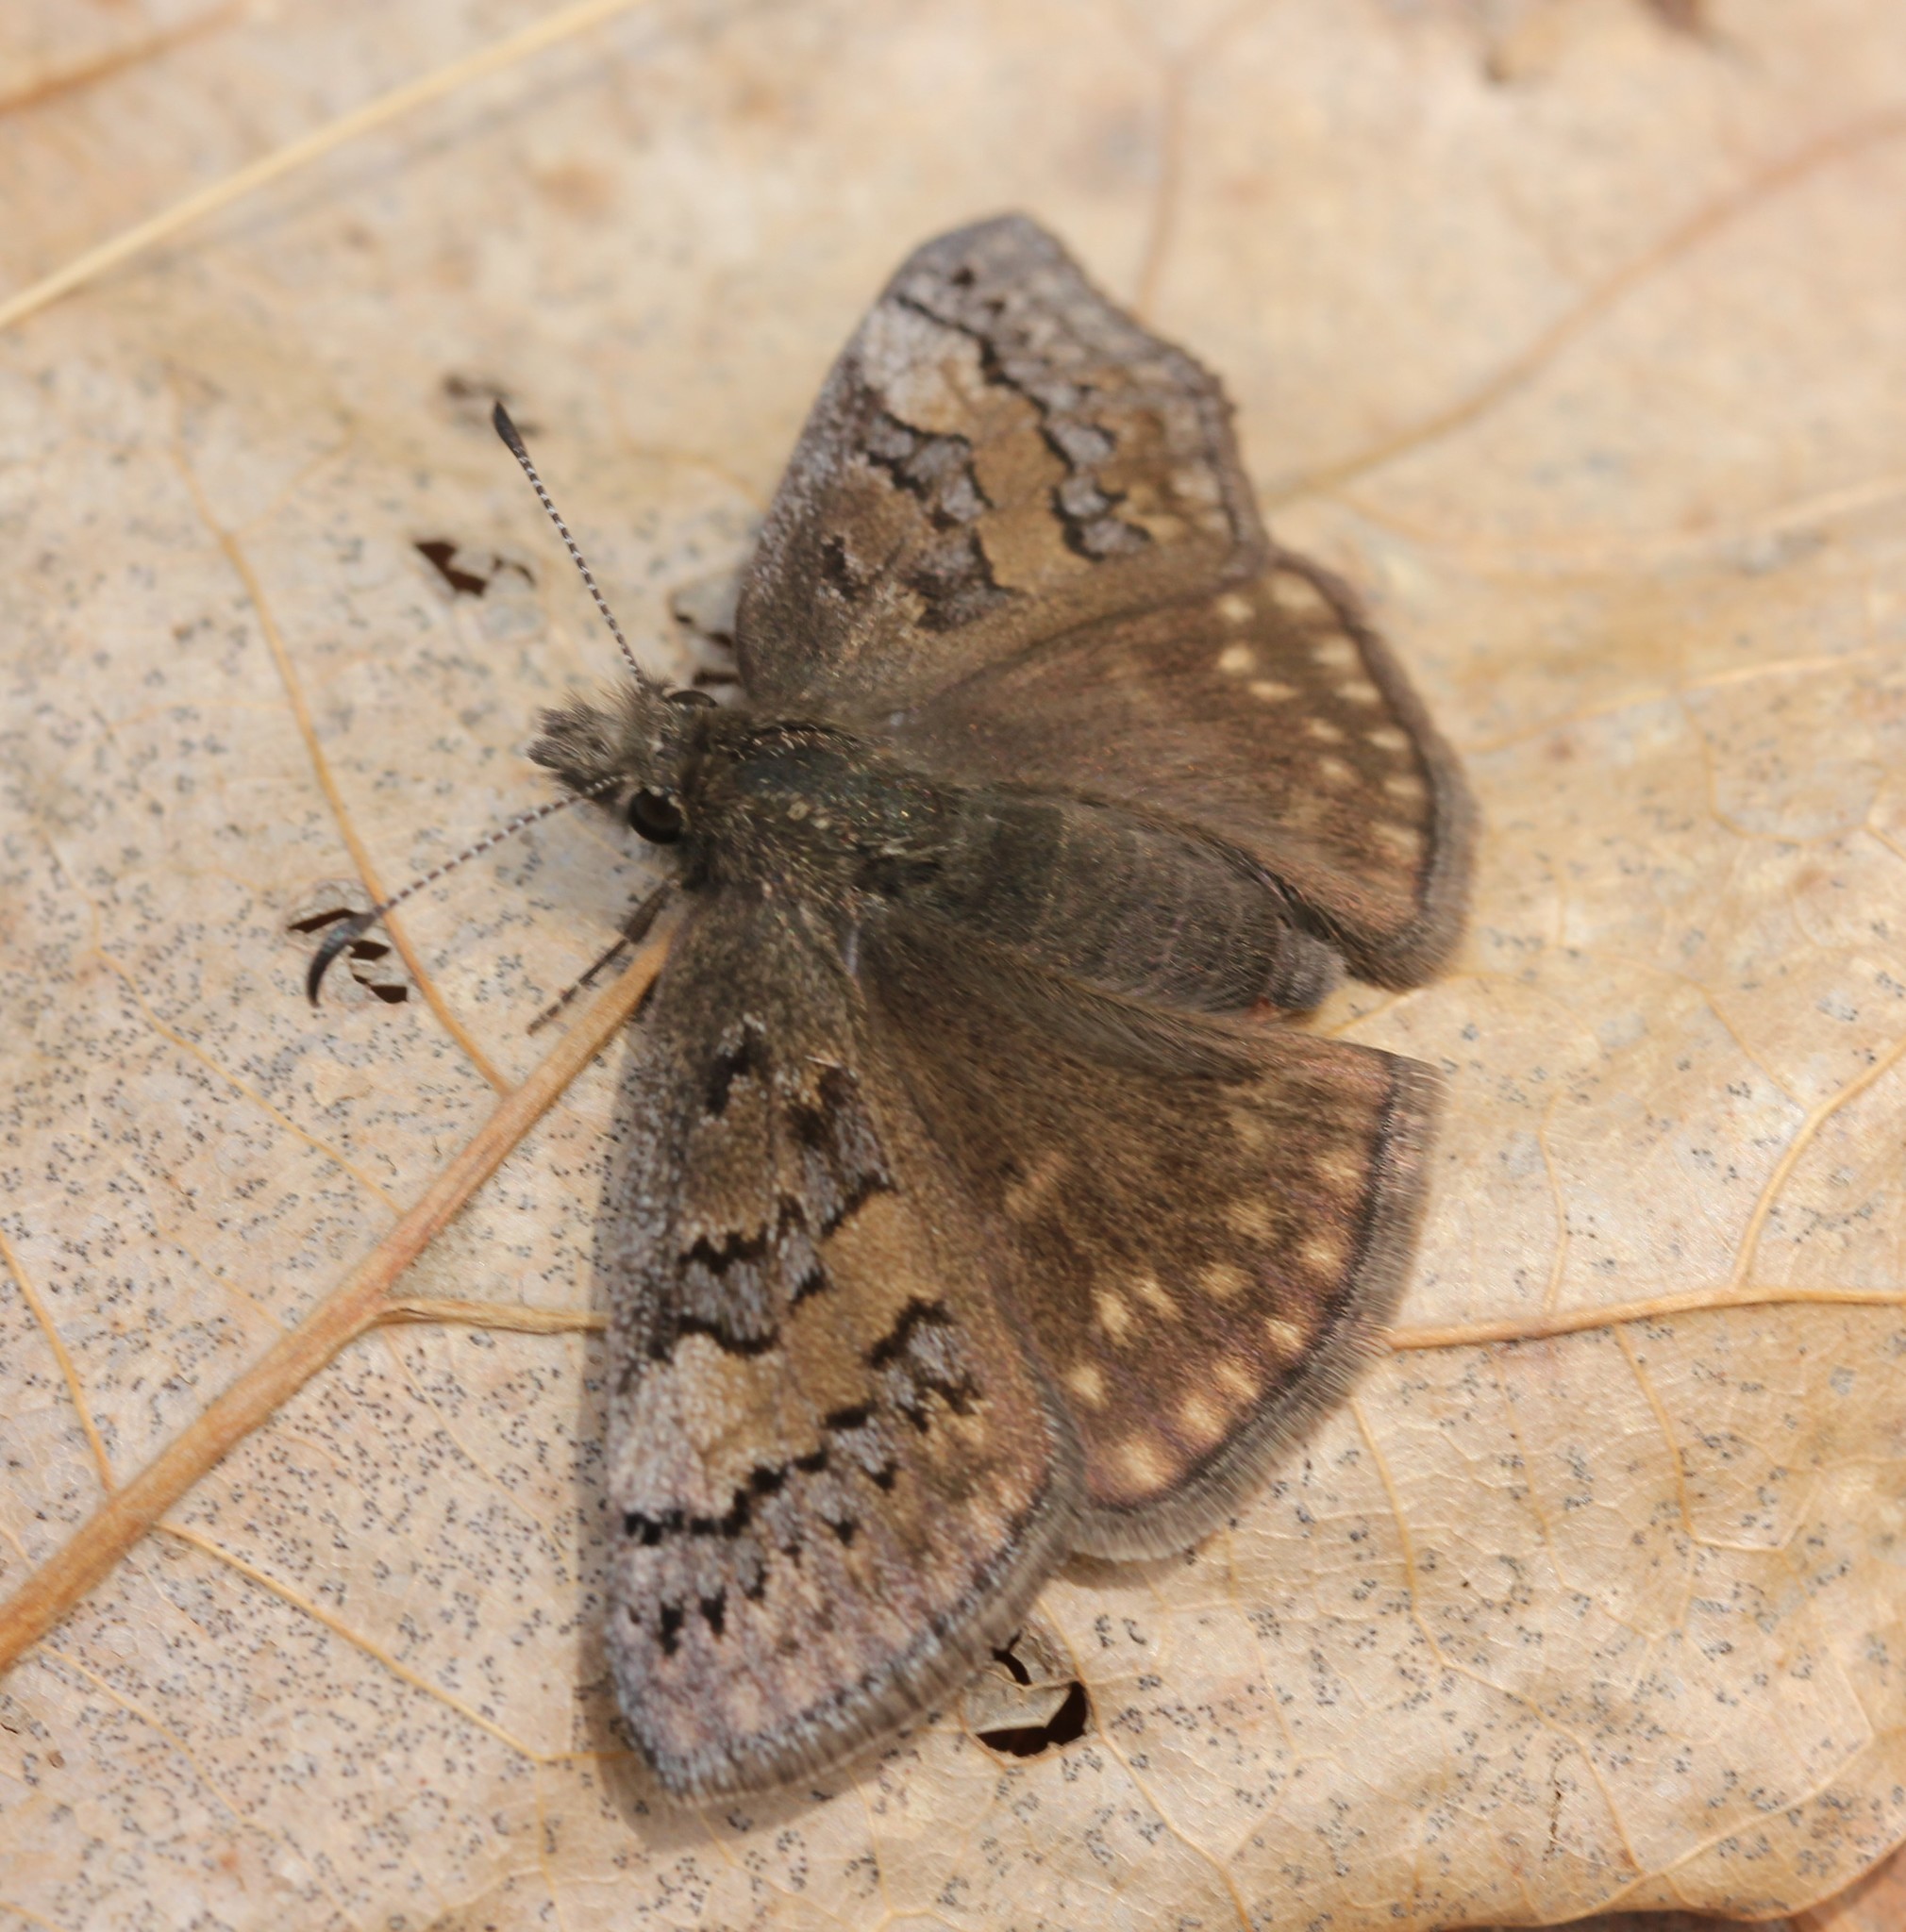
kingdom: Animalia
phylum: Arthropoda
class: Insecta
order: Lepidoptera
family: Hesperiidae
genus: Erynnis
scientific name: Erynnis brizo
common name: Sleepy duskywing
